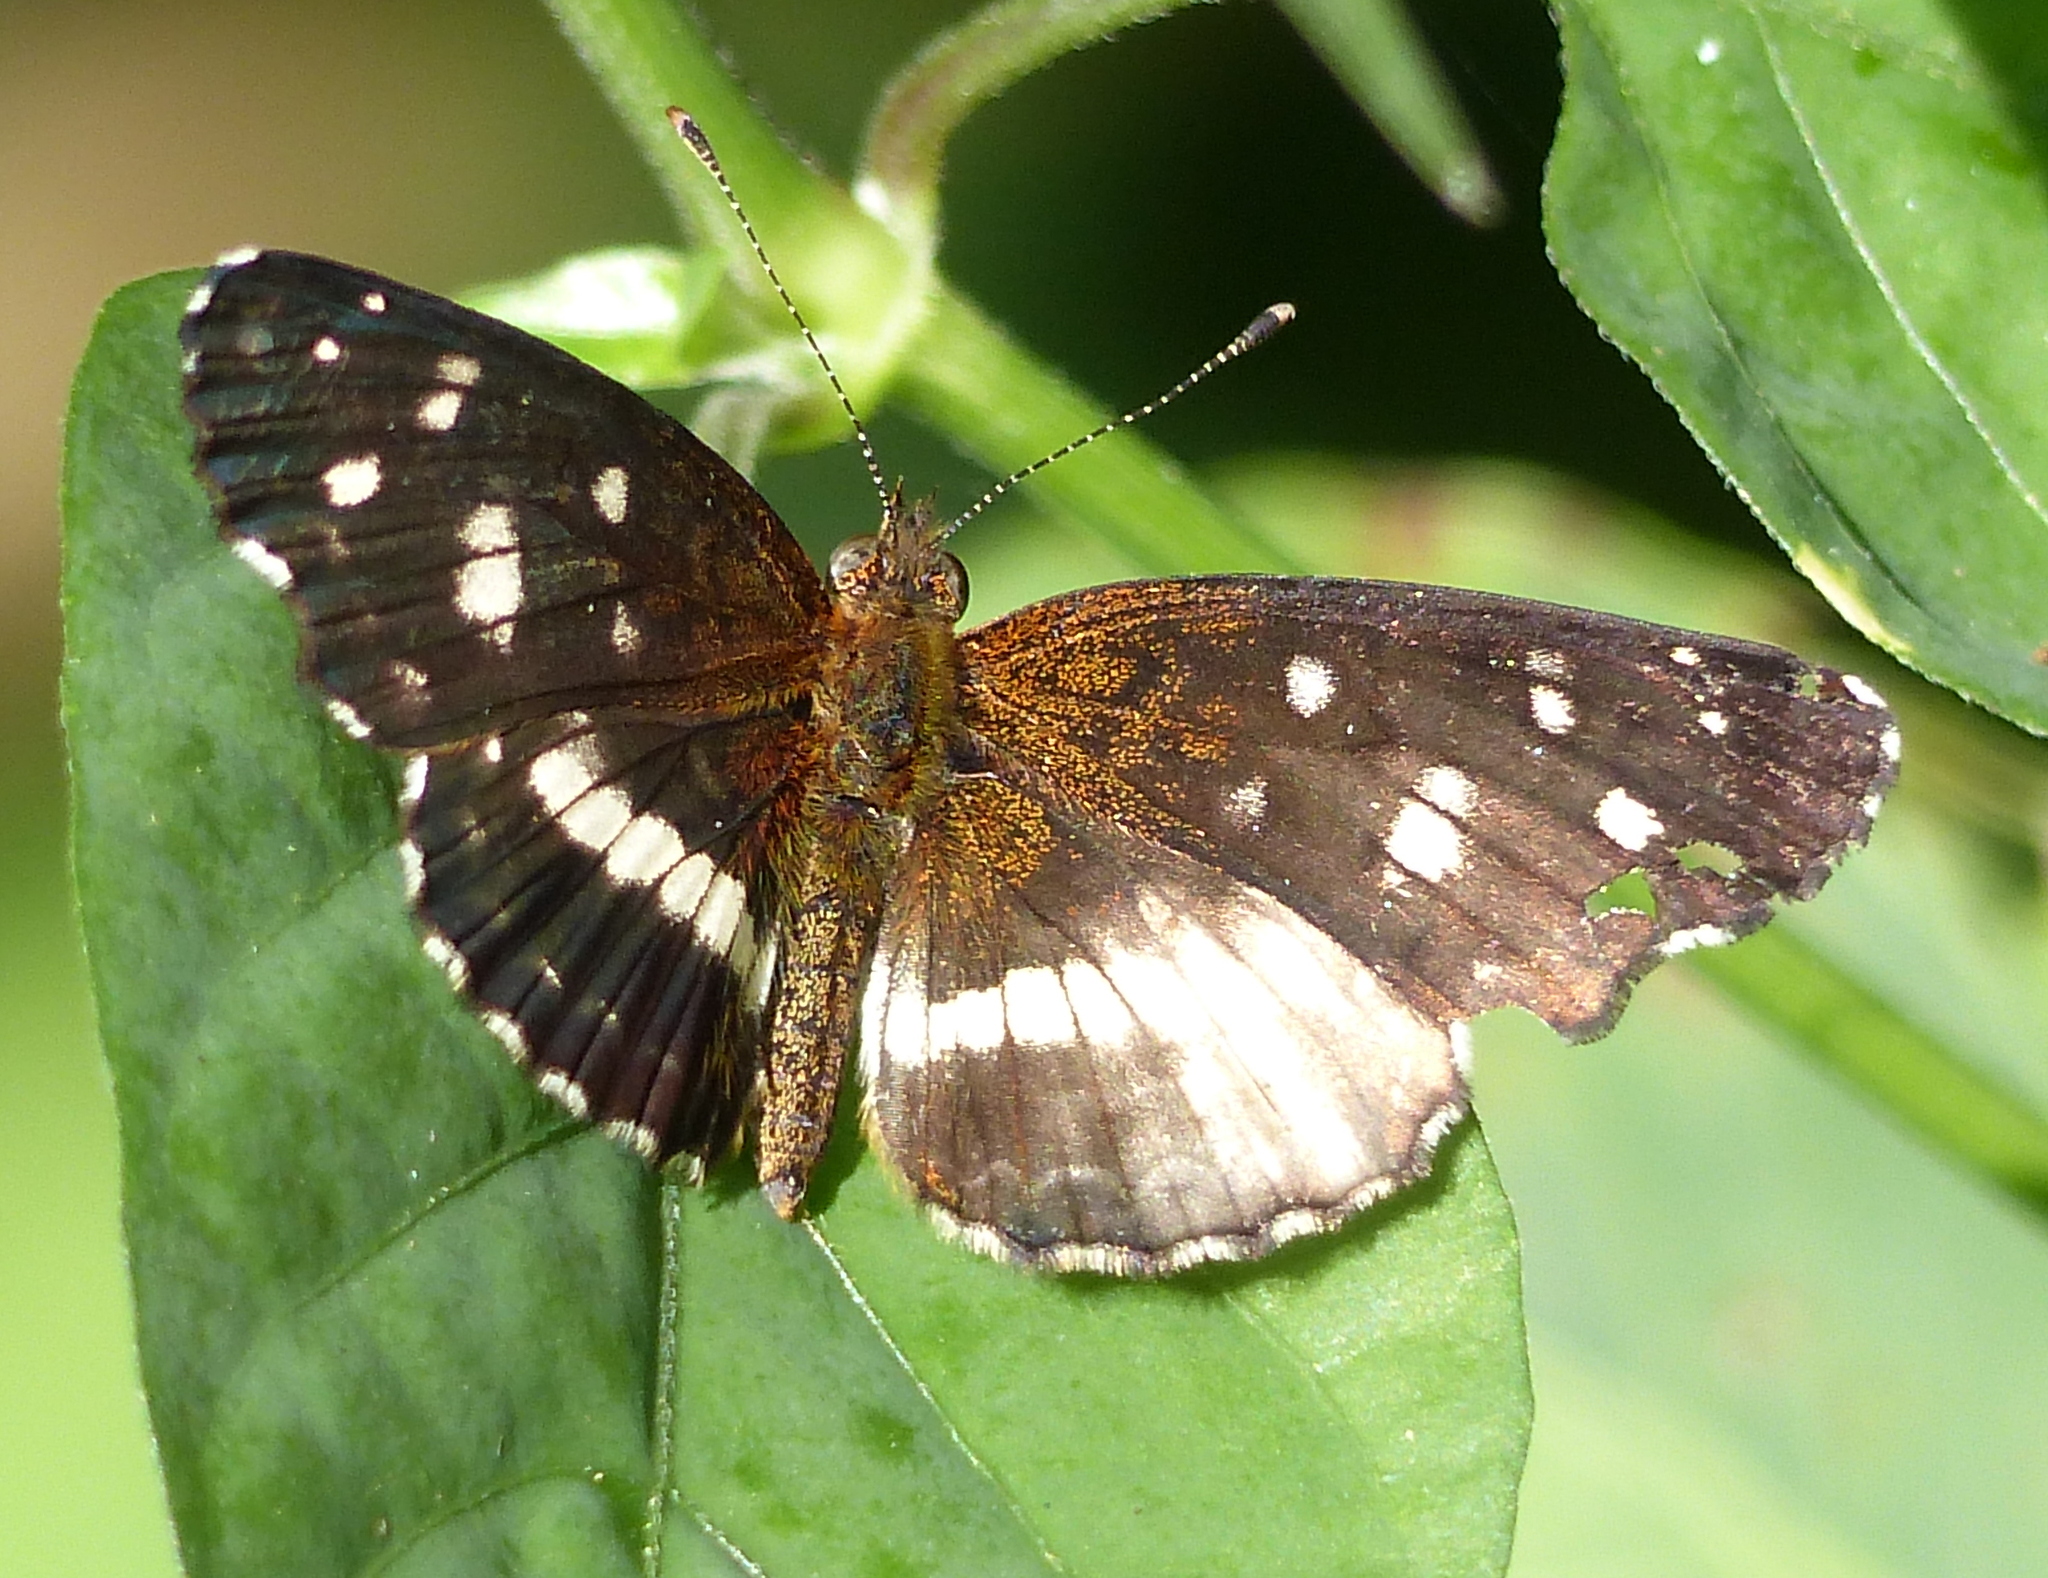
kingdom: Animalia
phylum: Arthropoda
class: Insecta
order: Lepidoptera
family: Nymphalidae
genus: Ortilia
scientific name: Ortilia ithra
